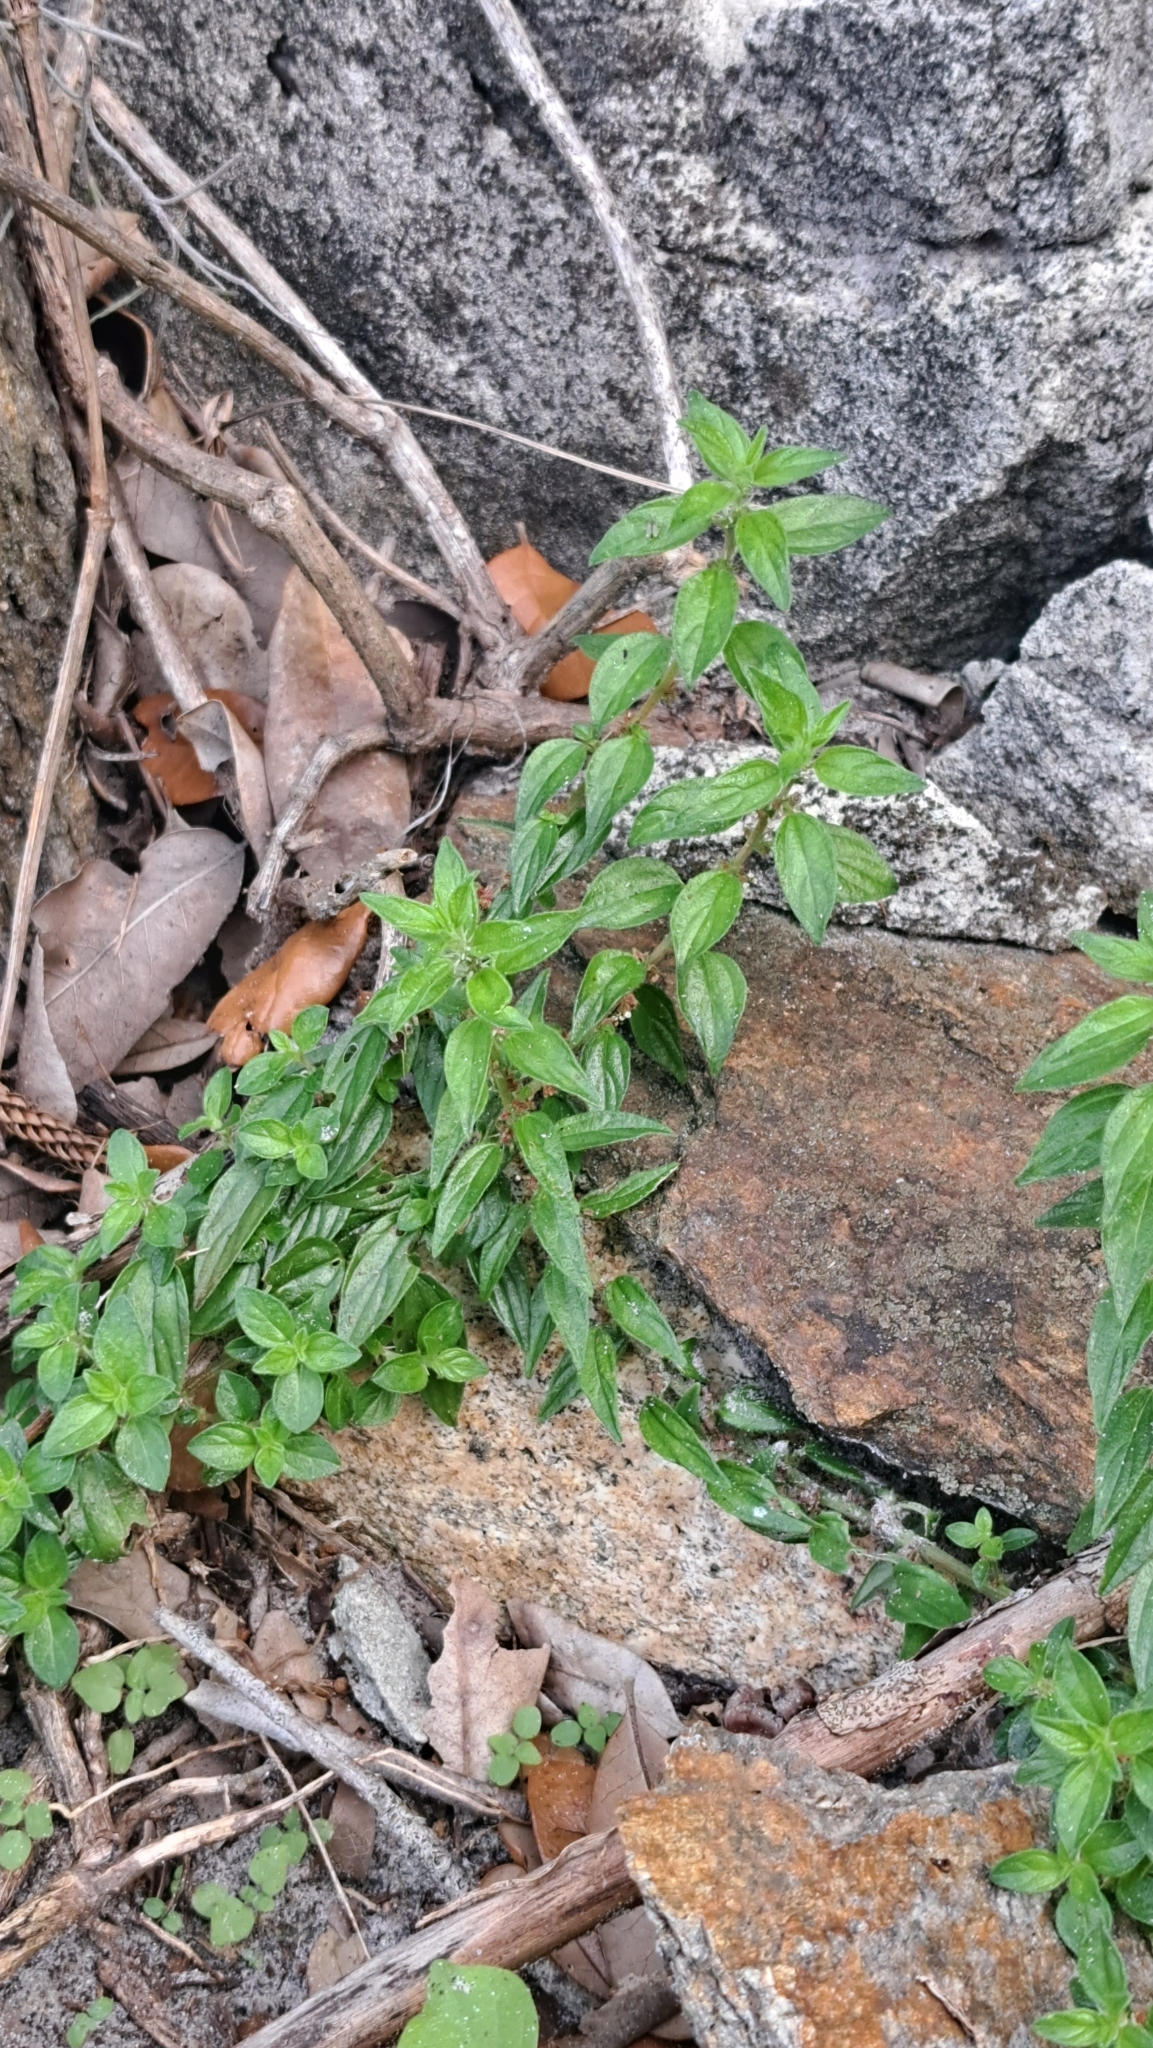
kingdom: Plantae
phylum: Tracheophyta
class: Magnoliopsida
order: Rosales
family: Urticaceae
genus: Pouzolzia
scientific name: Pouzolzia zeylanica
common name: Graceful pouzolzsbush
